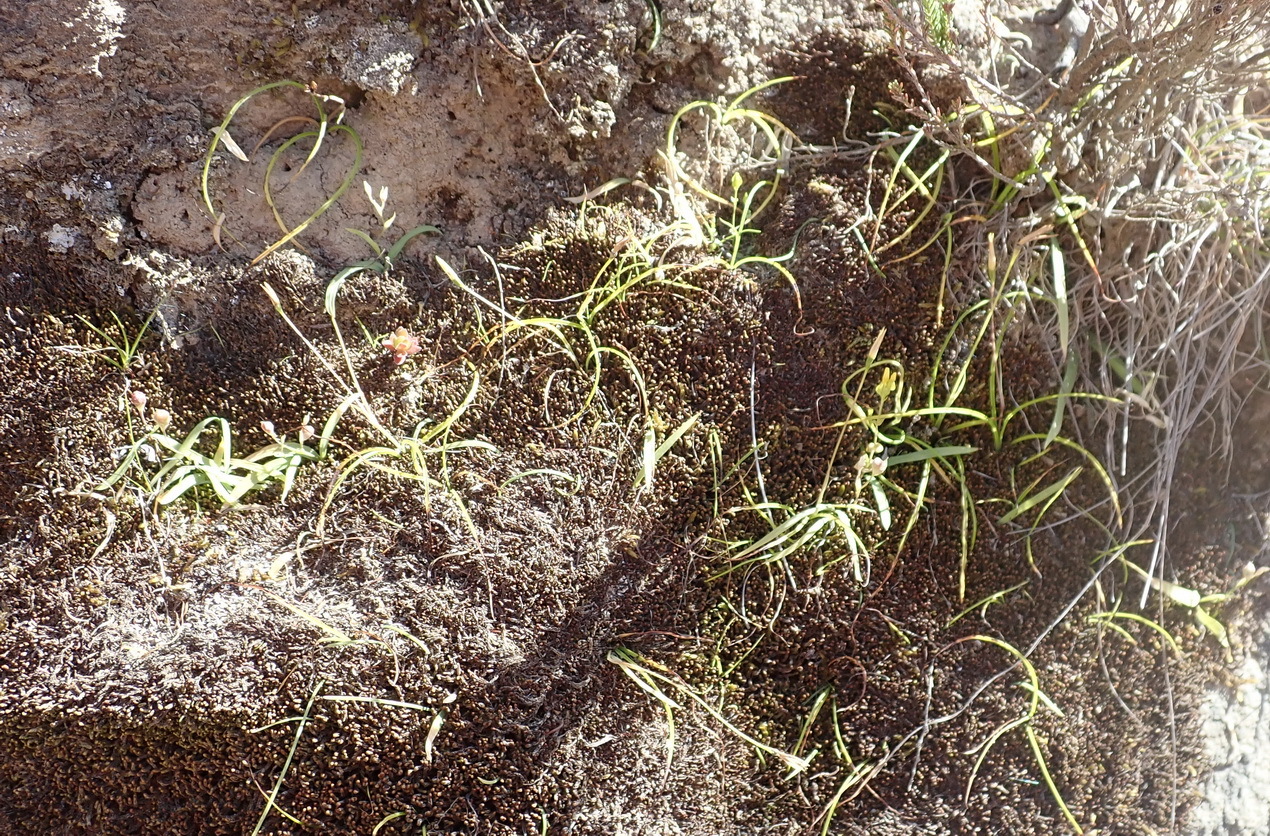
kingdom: Plantae
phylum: Tracheophyta
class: Liliopsida
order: Asparagales
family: Iridaceae
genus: Geissorhiza
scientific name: Geissorhiza delicatula
